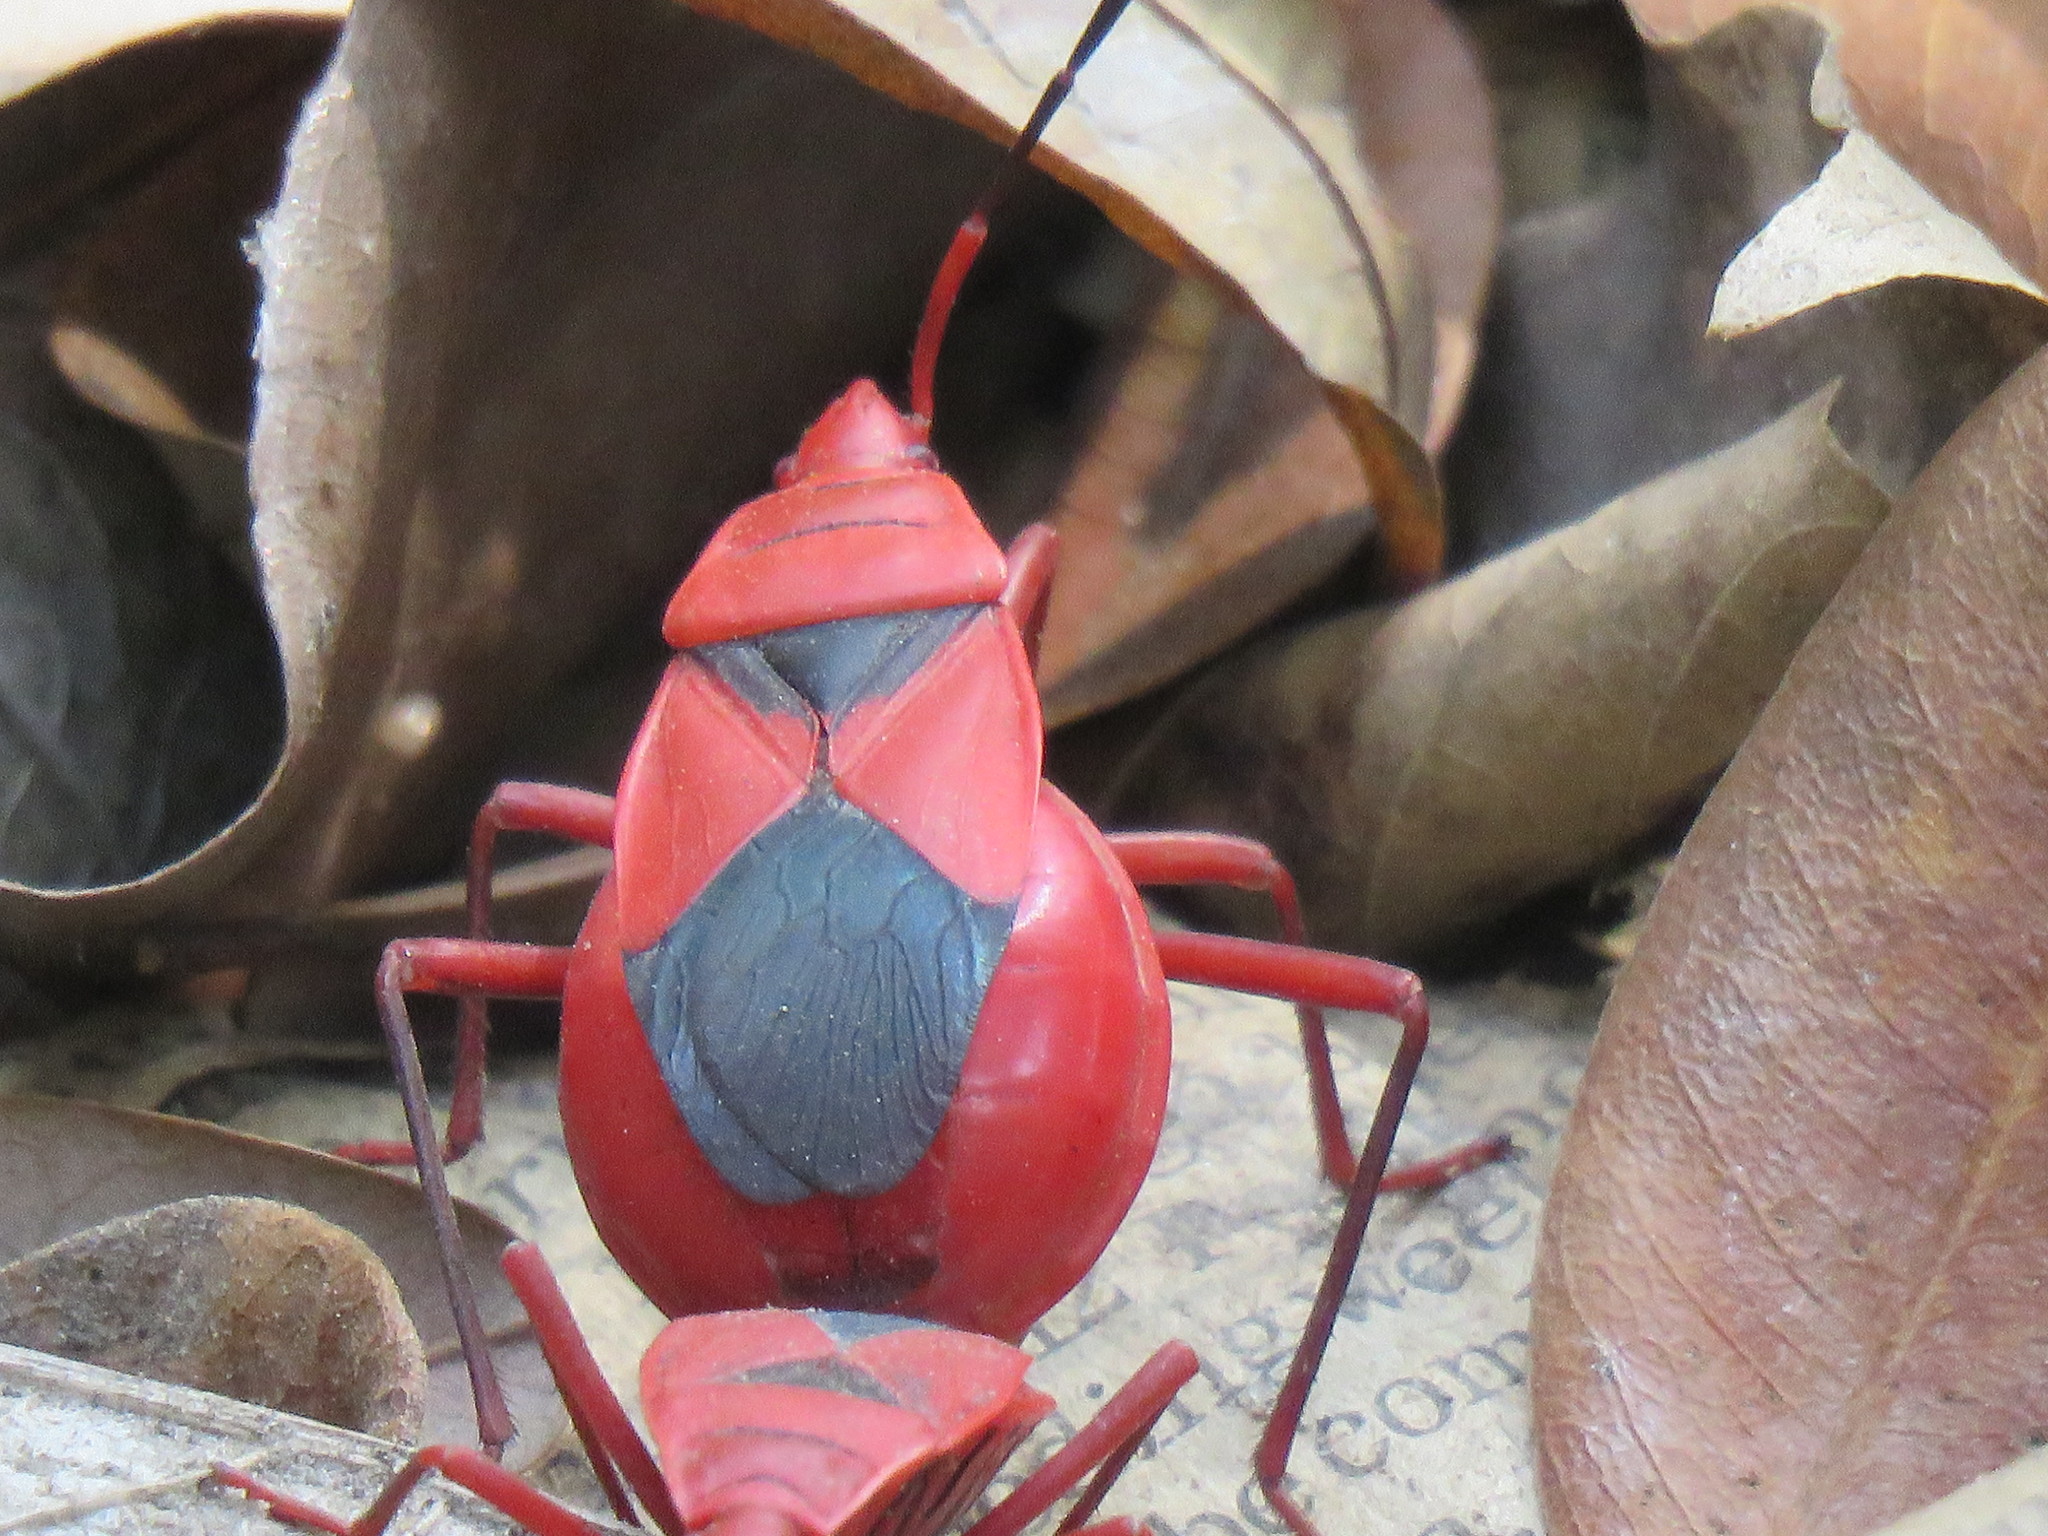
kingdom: Animalia
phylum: Arthropoda
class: Insecta
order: Hemiptera
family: Pyrrhocoridae
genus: Probergrothius
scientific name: Probergrothius
